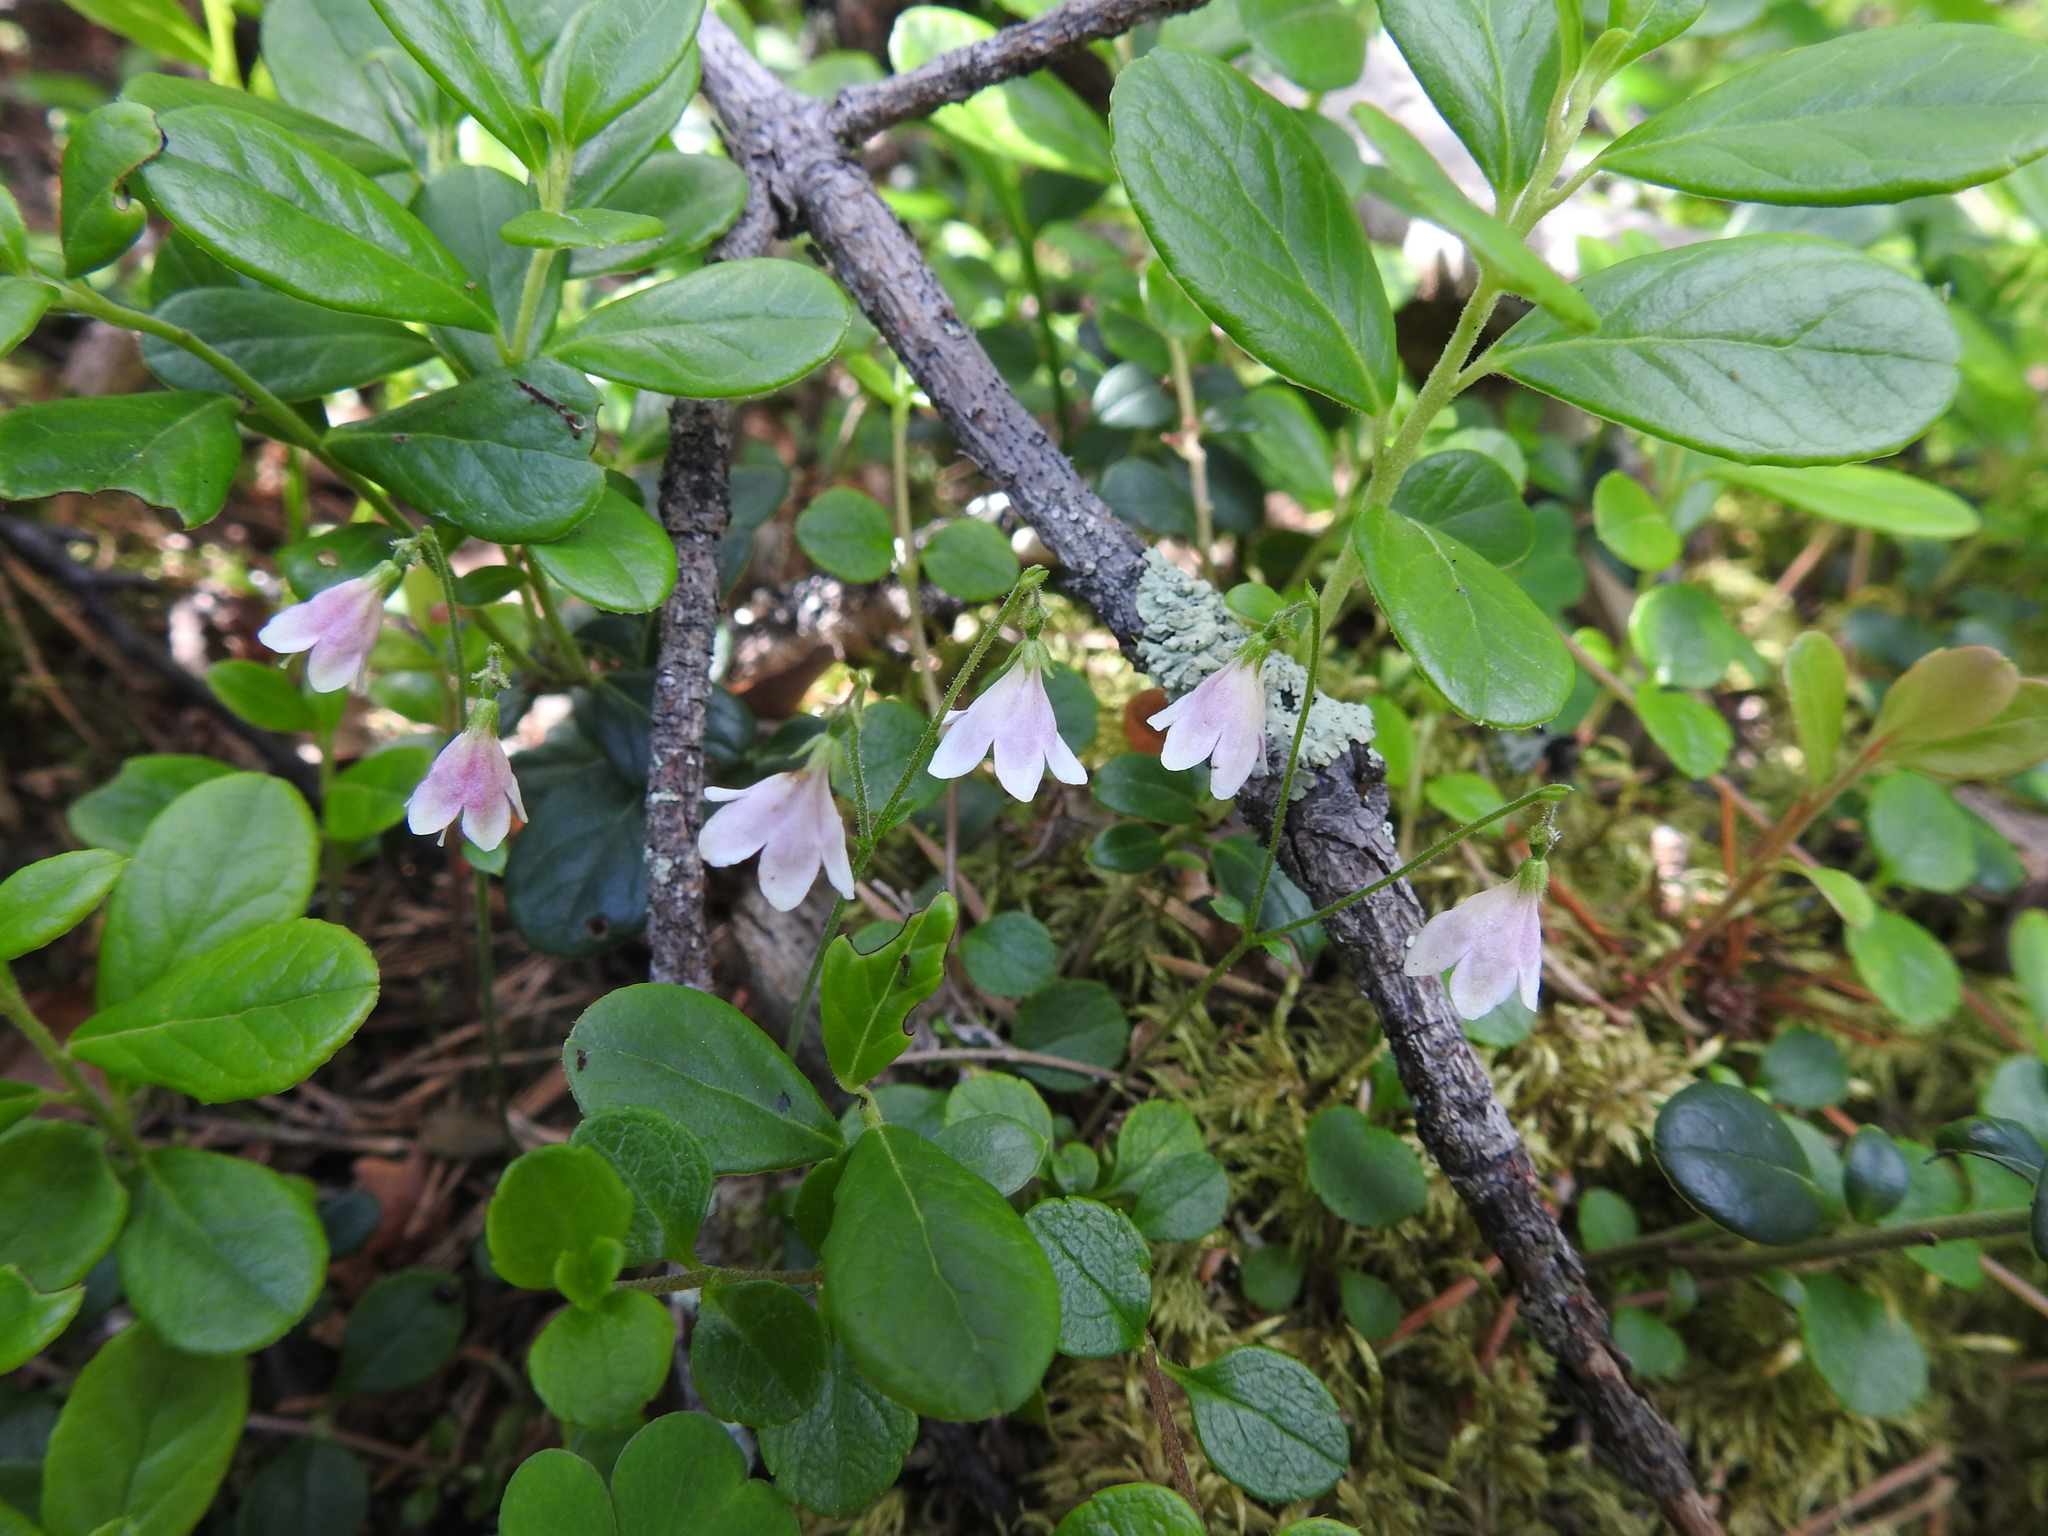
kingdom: Plantae
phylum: Tracheophyta
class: Magnoliopsida
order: Dipsacales
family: Caprifoliaceae
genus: Linnaea
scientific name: Linnaea borealis
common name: Twinflower
